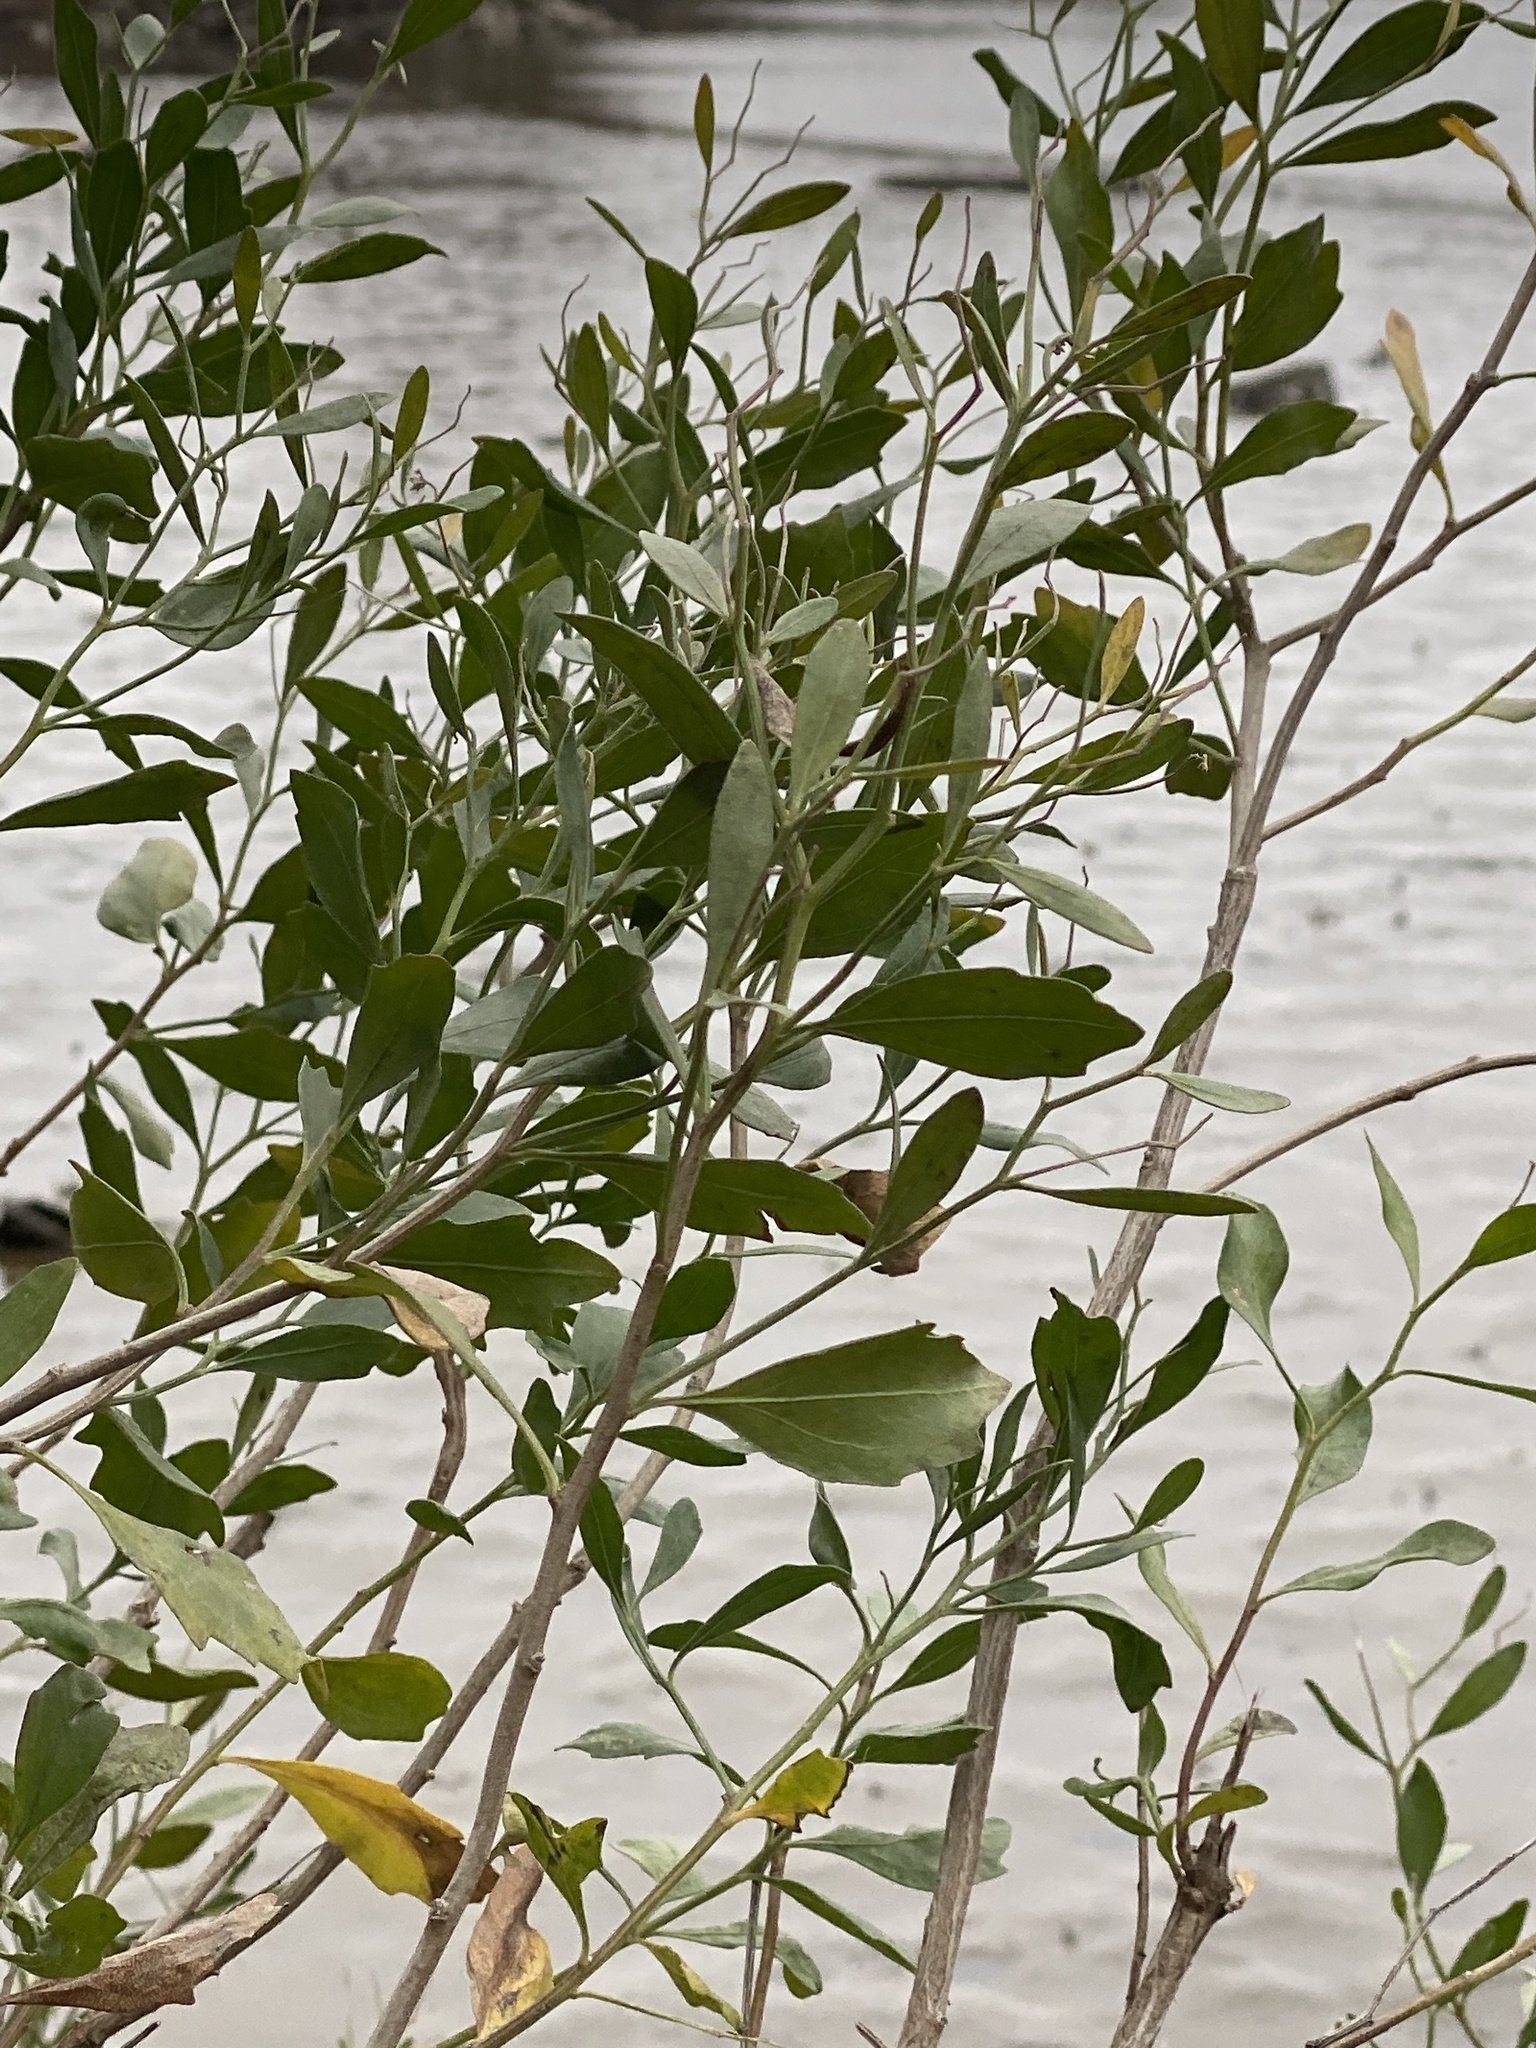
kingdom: Plantae
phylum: Tracheophyta
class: Magnoliopsida
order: Asterales
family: Asteraceae
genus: Baccharis
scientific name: Baccharis halimifolia
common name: Eastern baccharis
